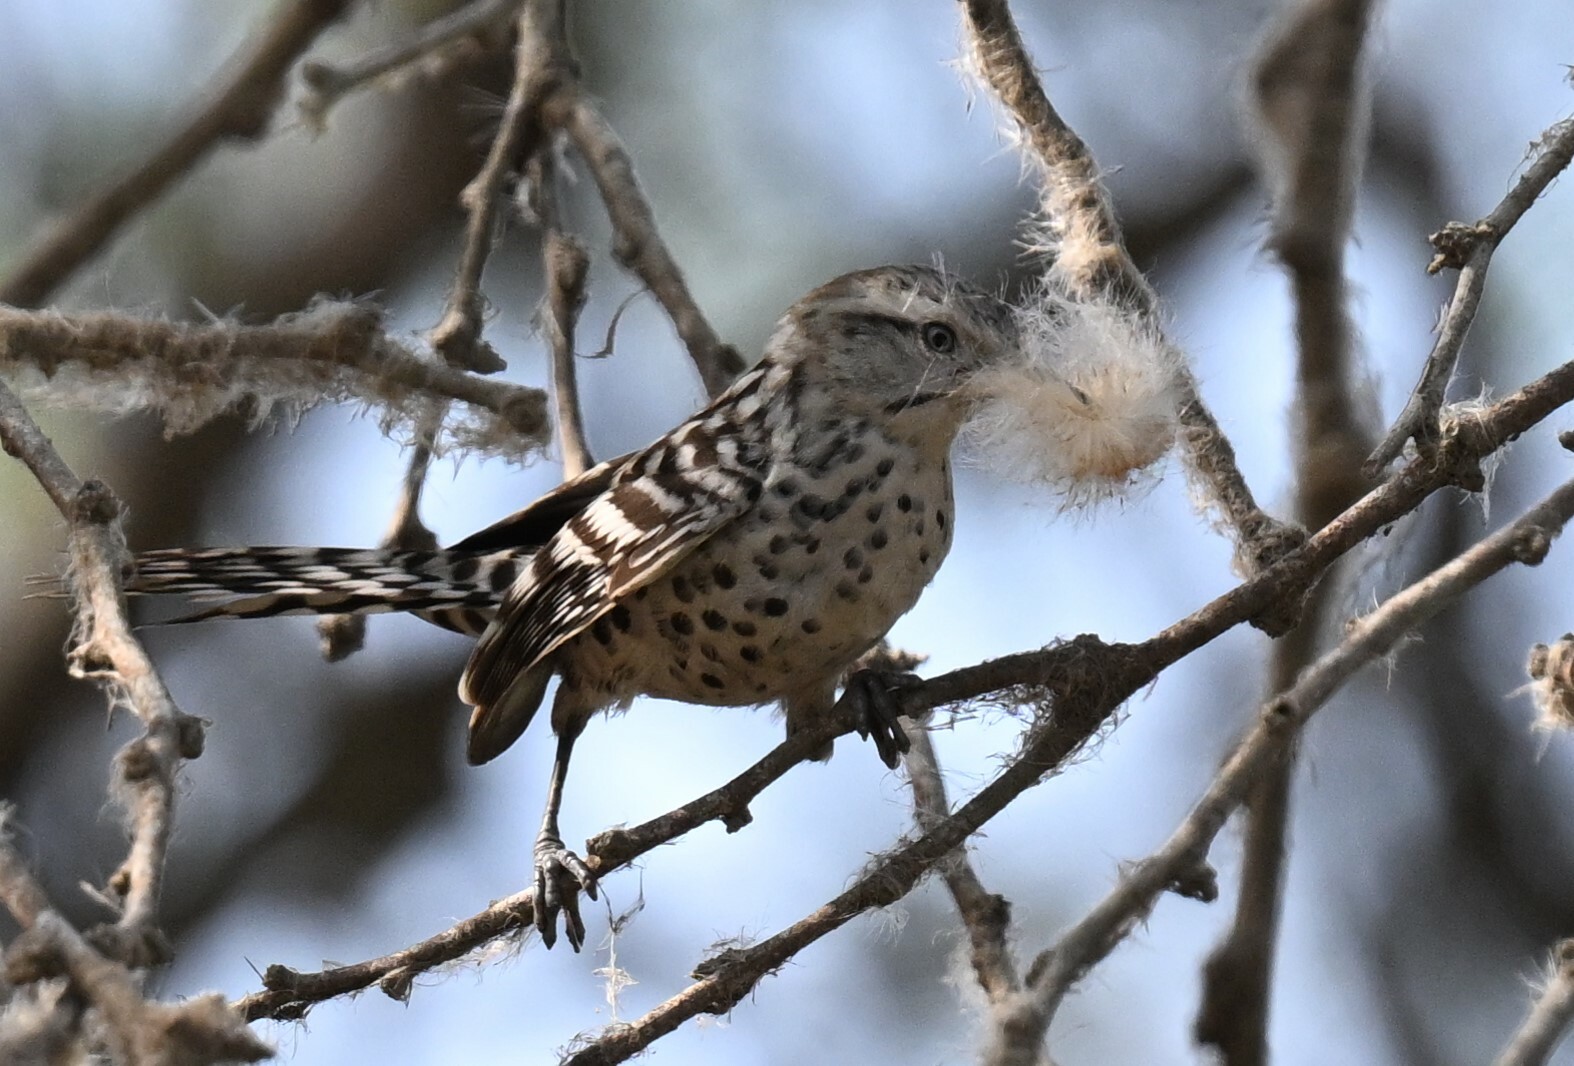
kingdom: Animalia
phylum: Chordata
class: Aves
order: Passeriformes
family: Troglodytidae
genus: Campylorhynchus
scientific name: Campylorhynchus nuchalis
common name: Stripe-backed wren
